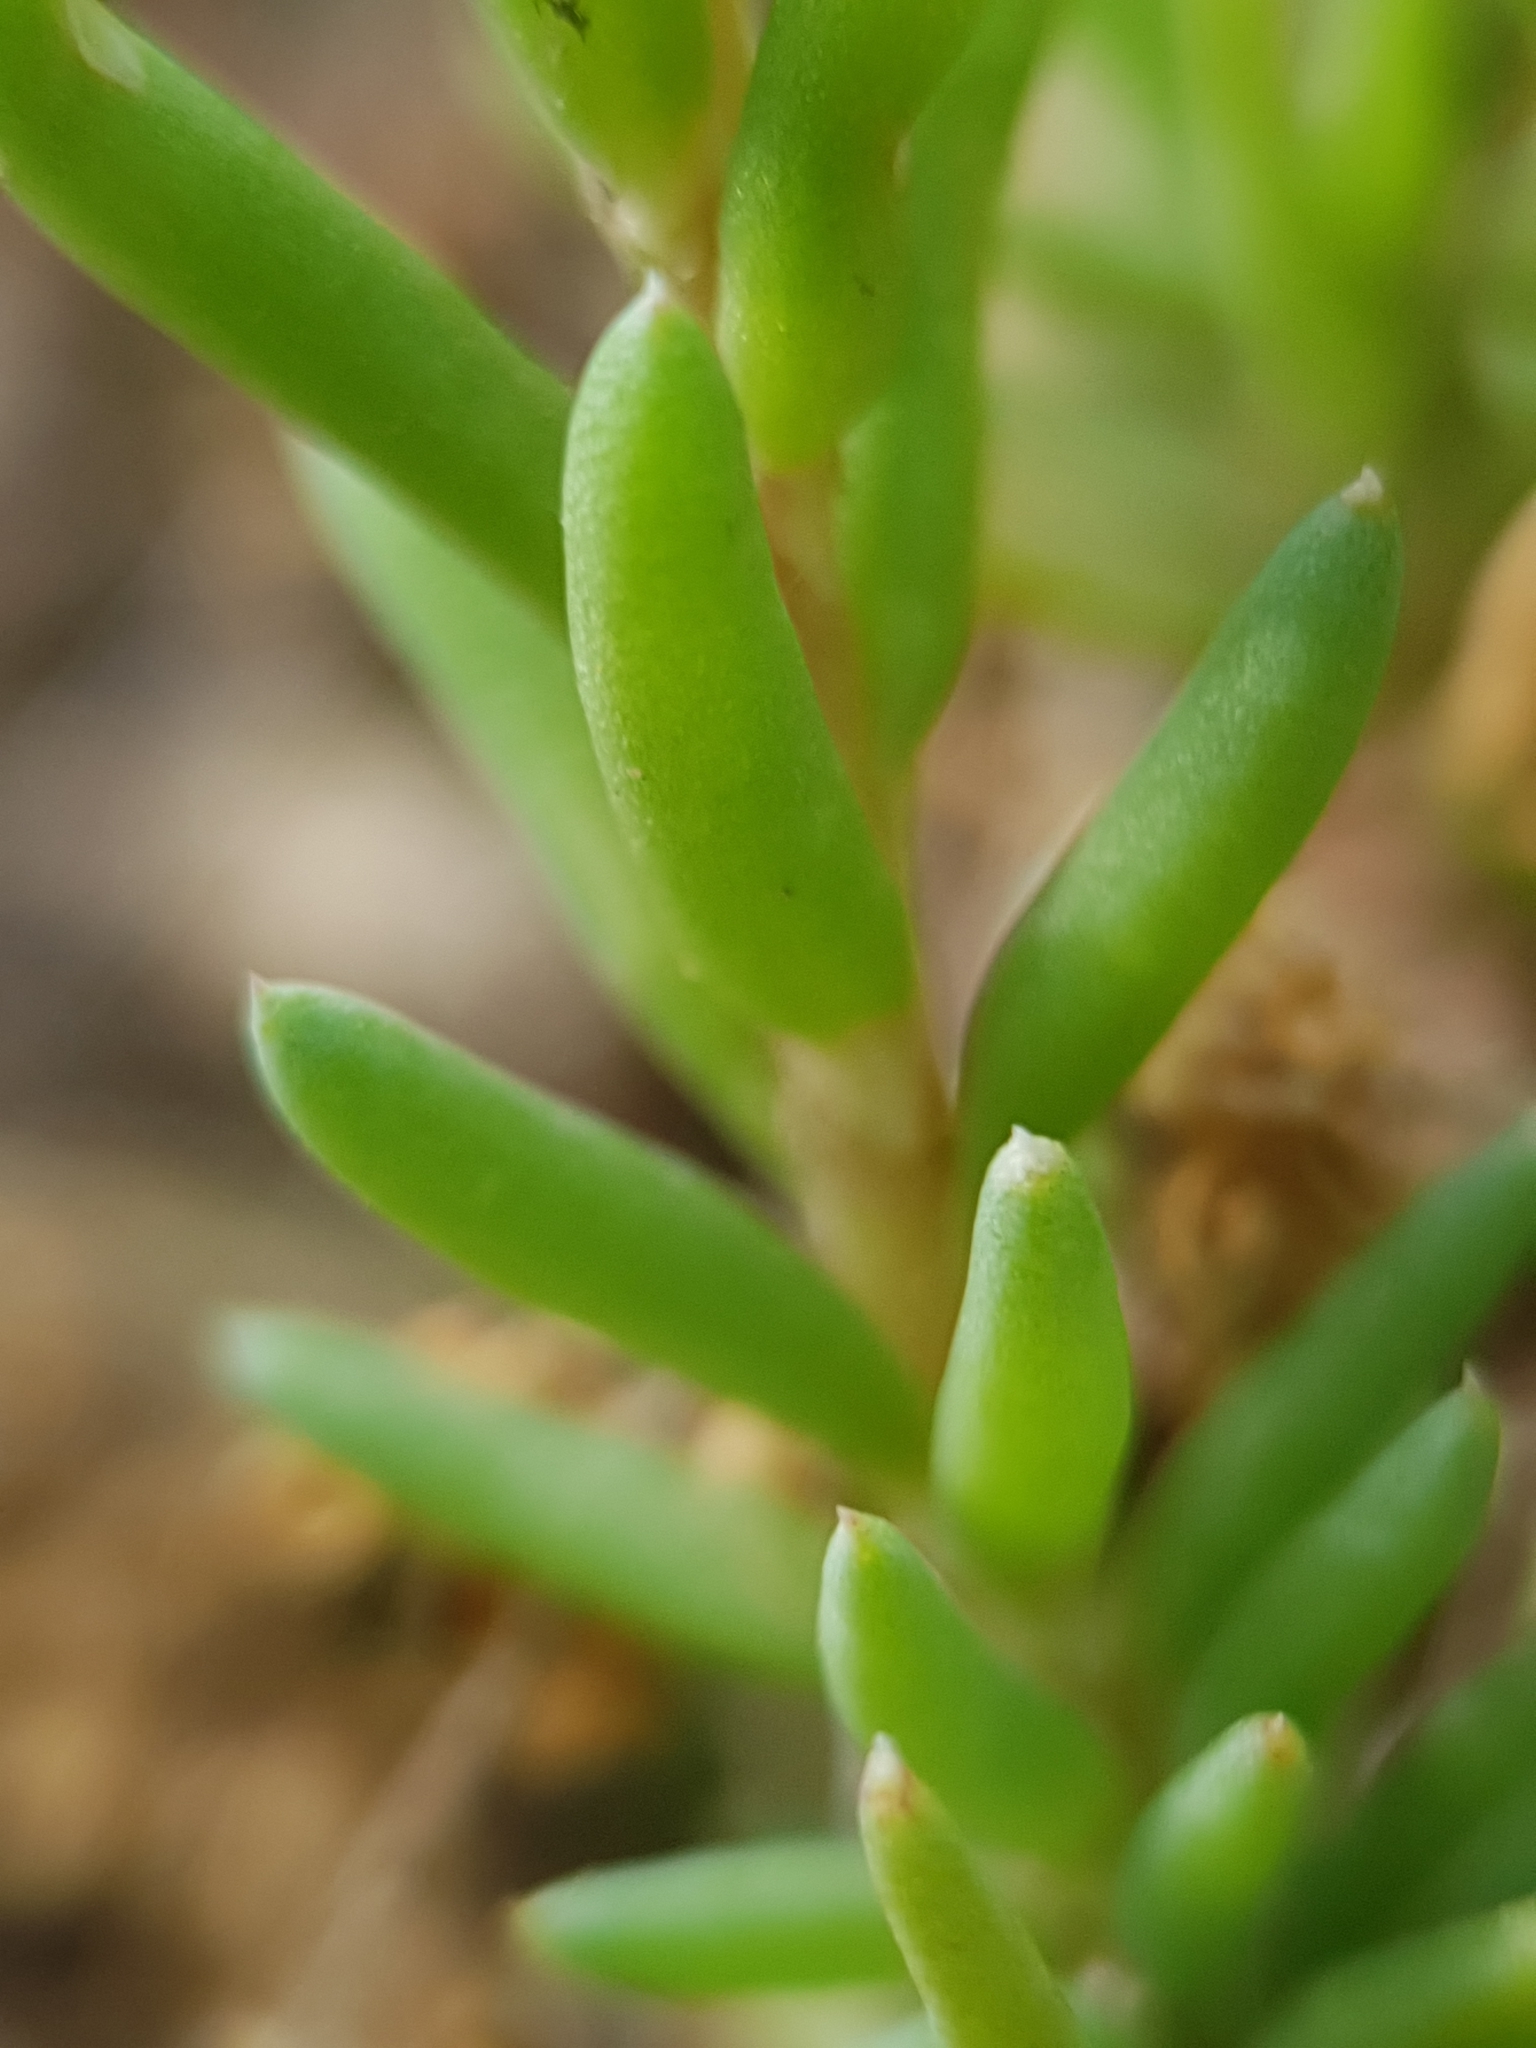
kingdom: Plantae
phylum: Tracheophyta
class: Magnoliopsida
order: Saxifragales
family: Crassulaceae
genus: Petrosedum
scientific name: Petrosedum amplexicaule
